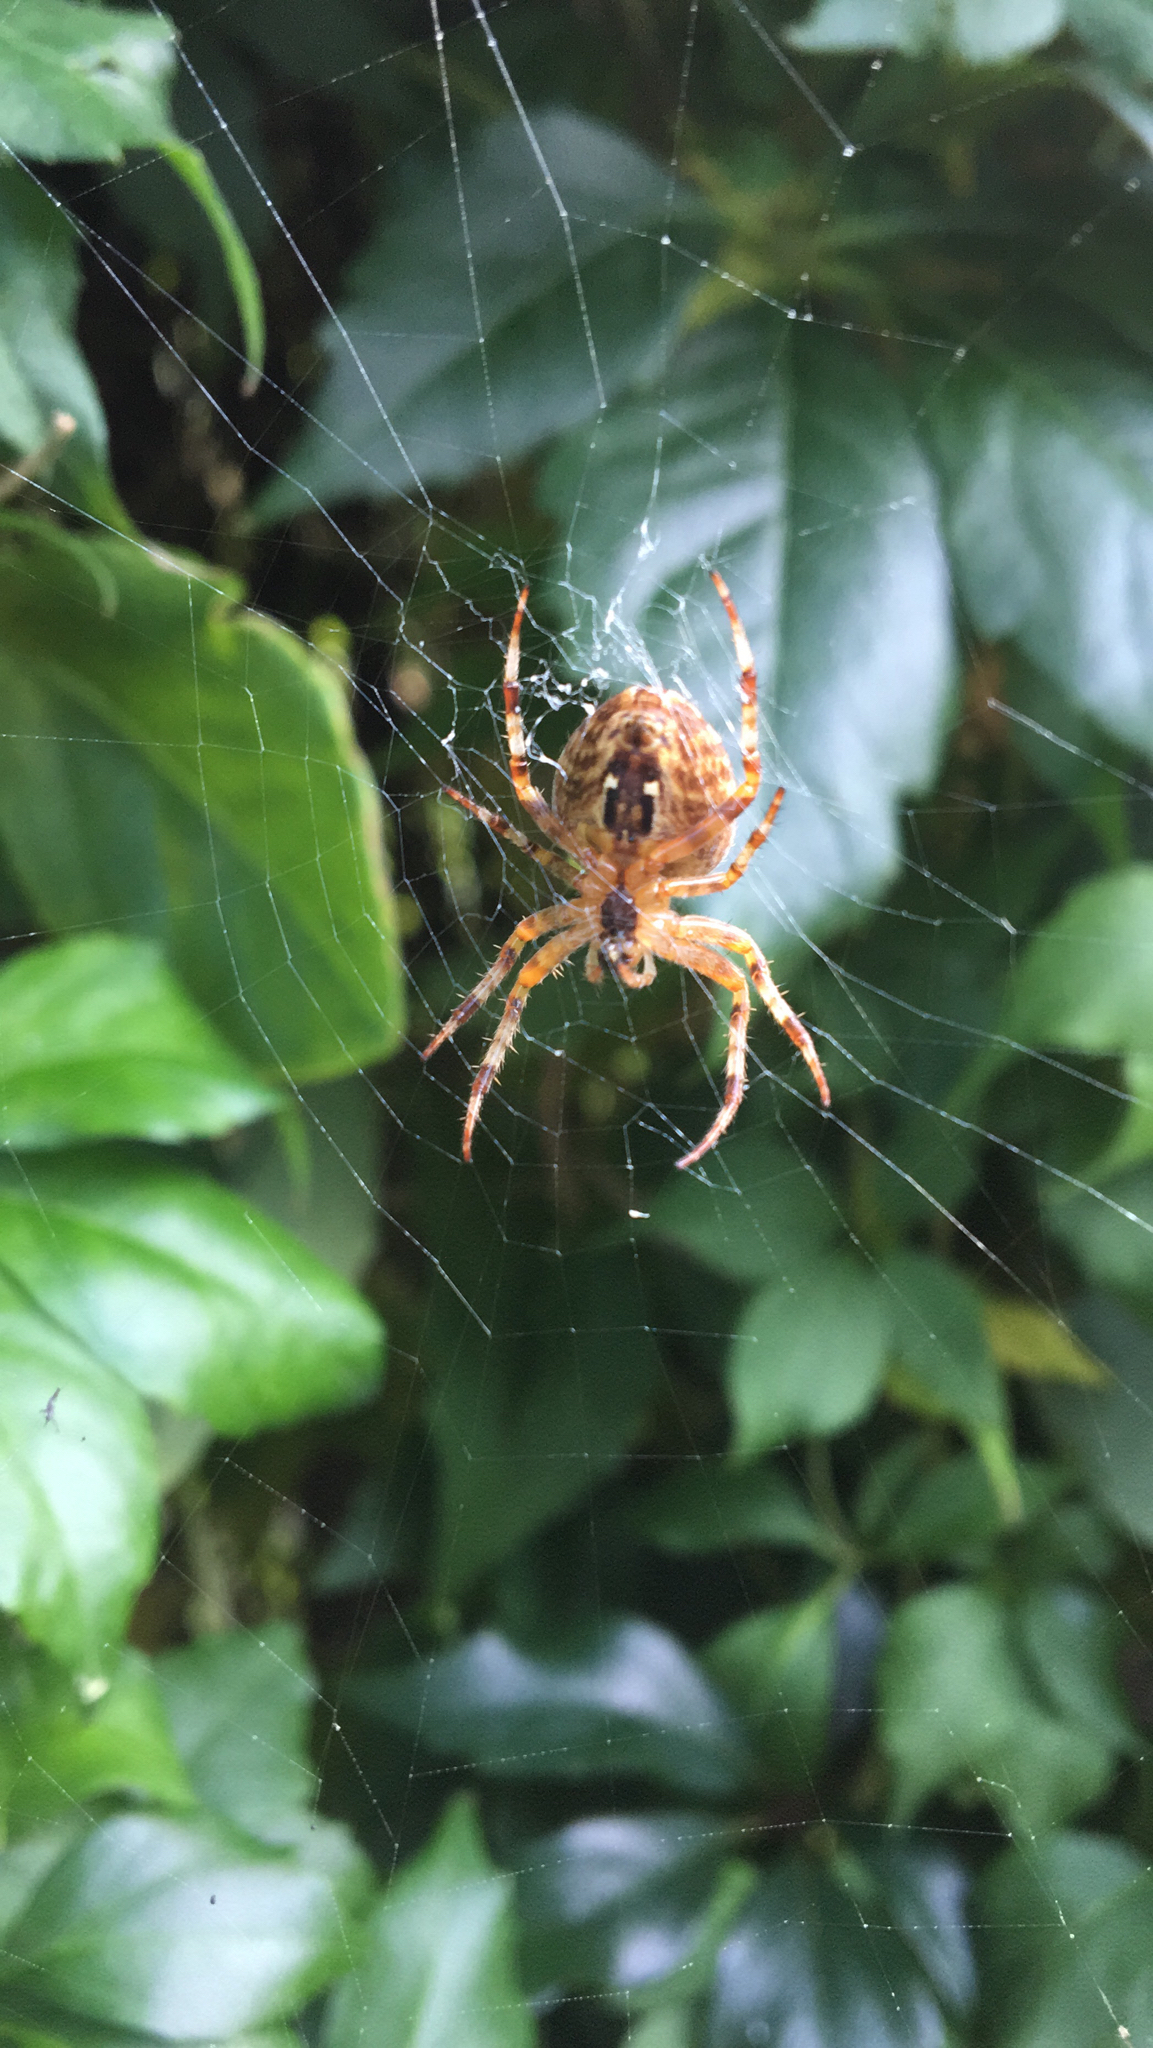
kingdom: Animalia
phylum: Arthropoda
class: Arachnida
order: Araneae
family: Araneidae
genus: Araneus
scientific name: Araneus diadematus
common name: Cross orbweaver
